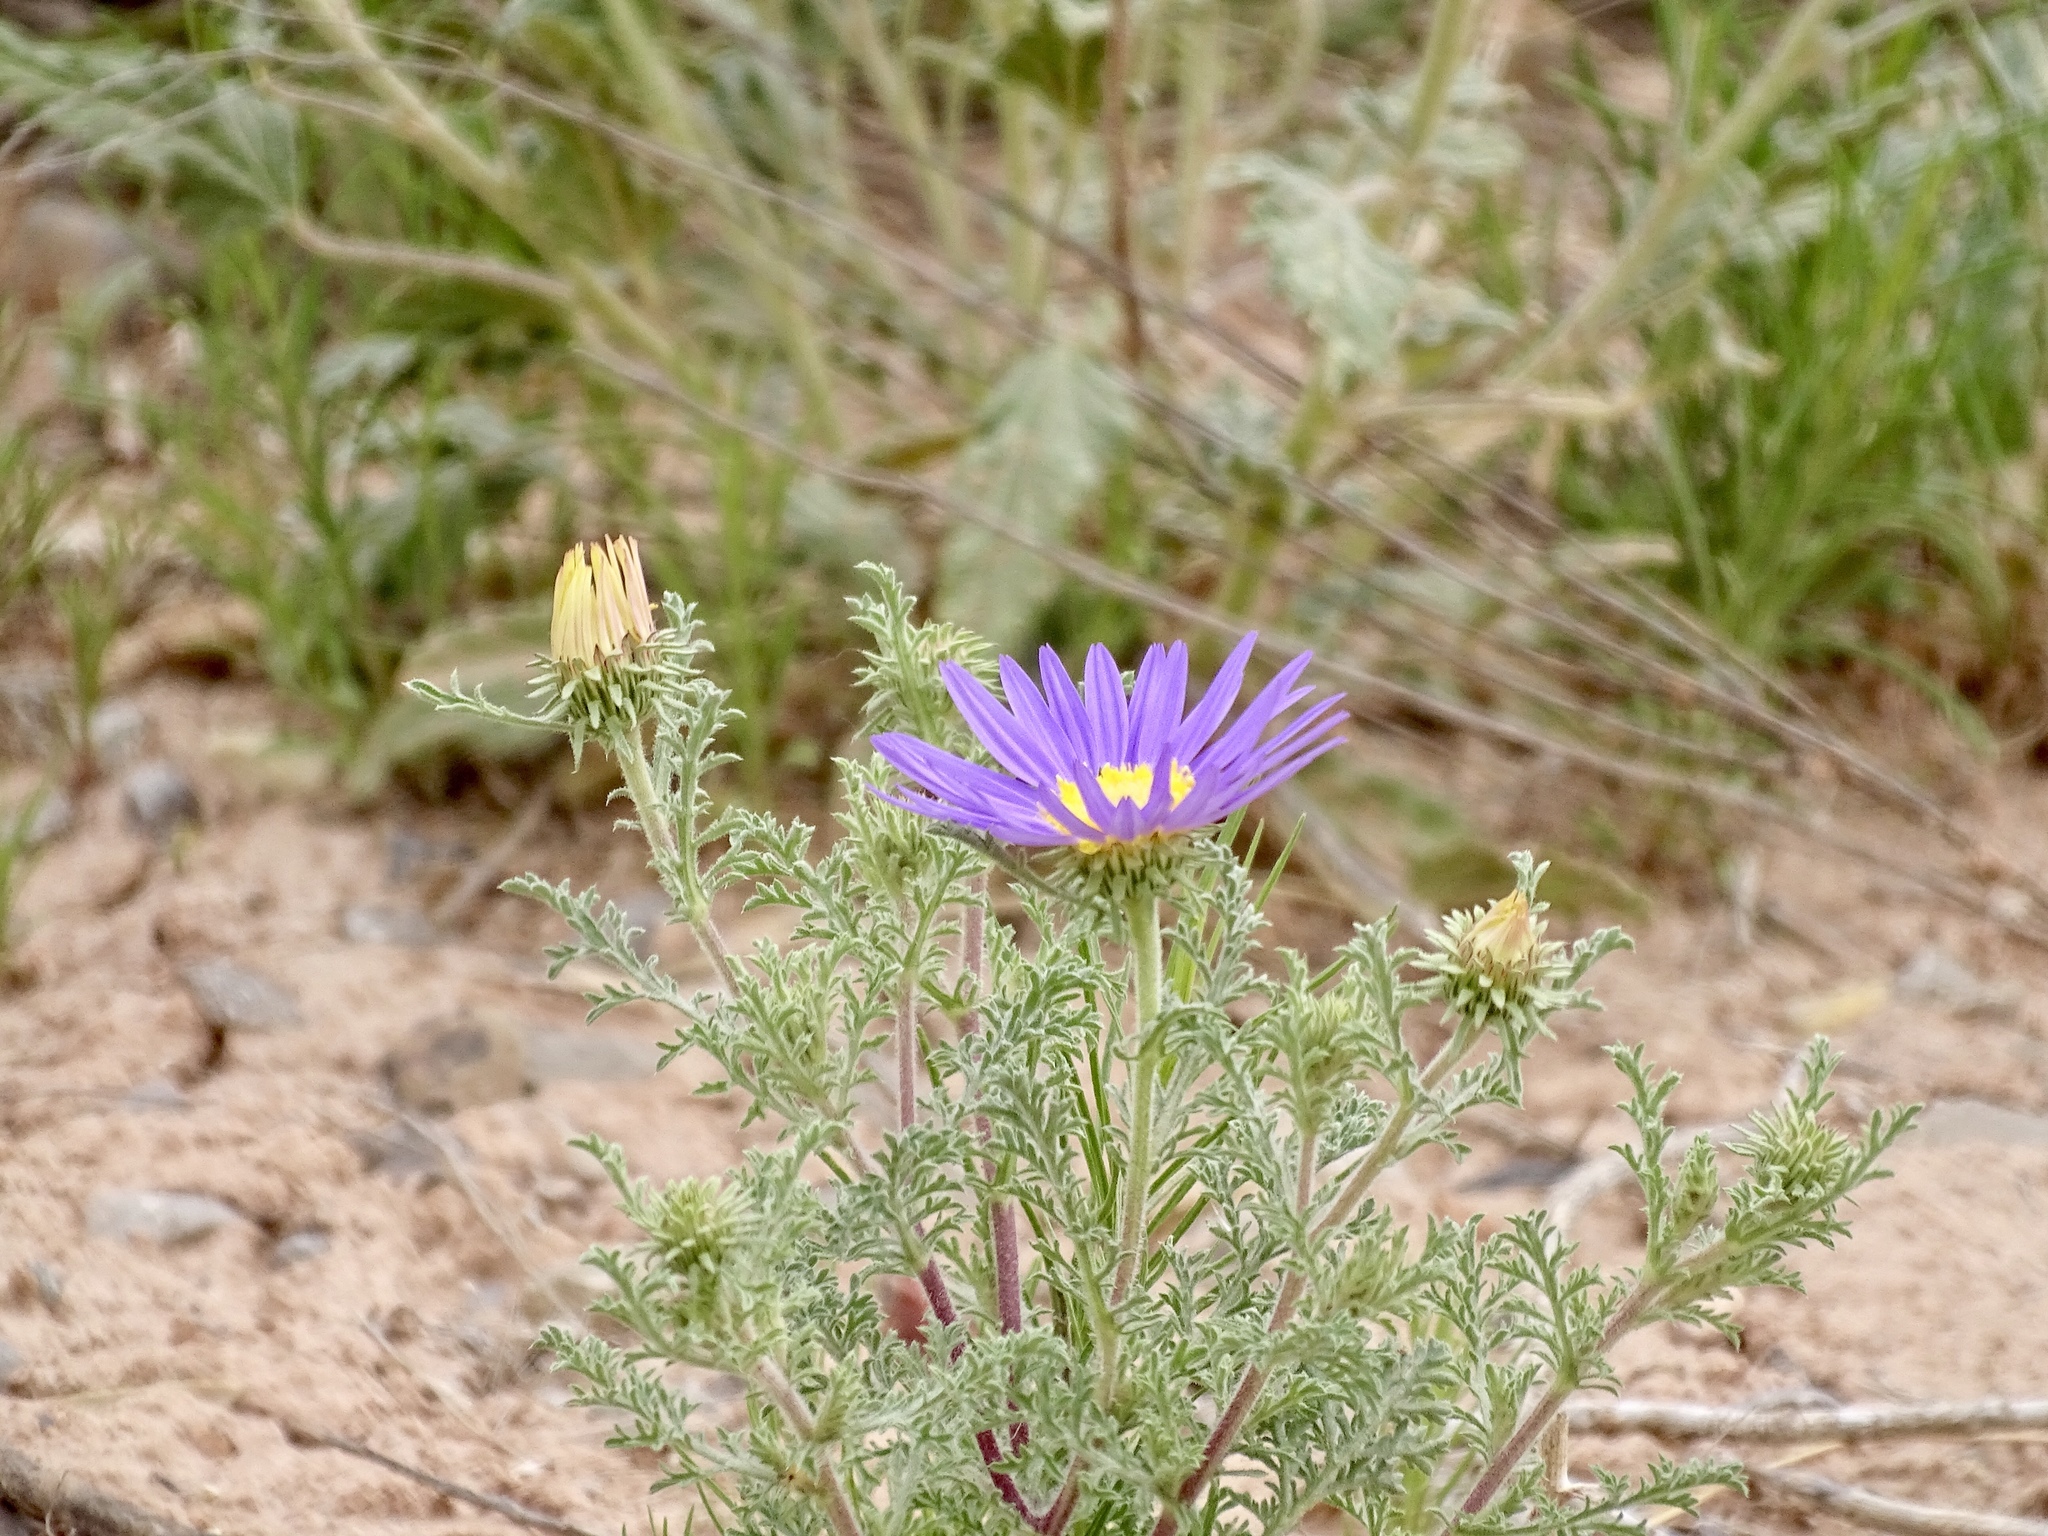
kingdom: Plantae
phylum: Tracheophyta
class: Magnoliopsida
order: Asterales
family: Asteraceae
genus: Machaeranthera
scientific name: Machaeranthera tanacetifolia
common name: Tansy-aster
